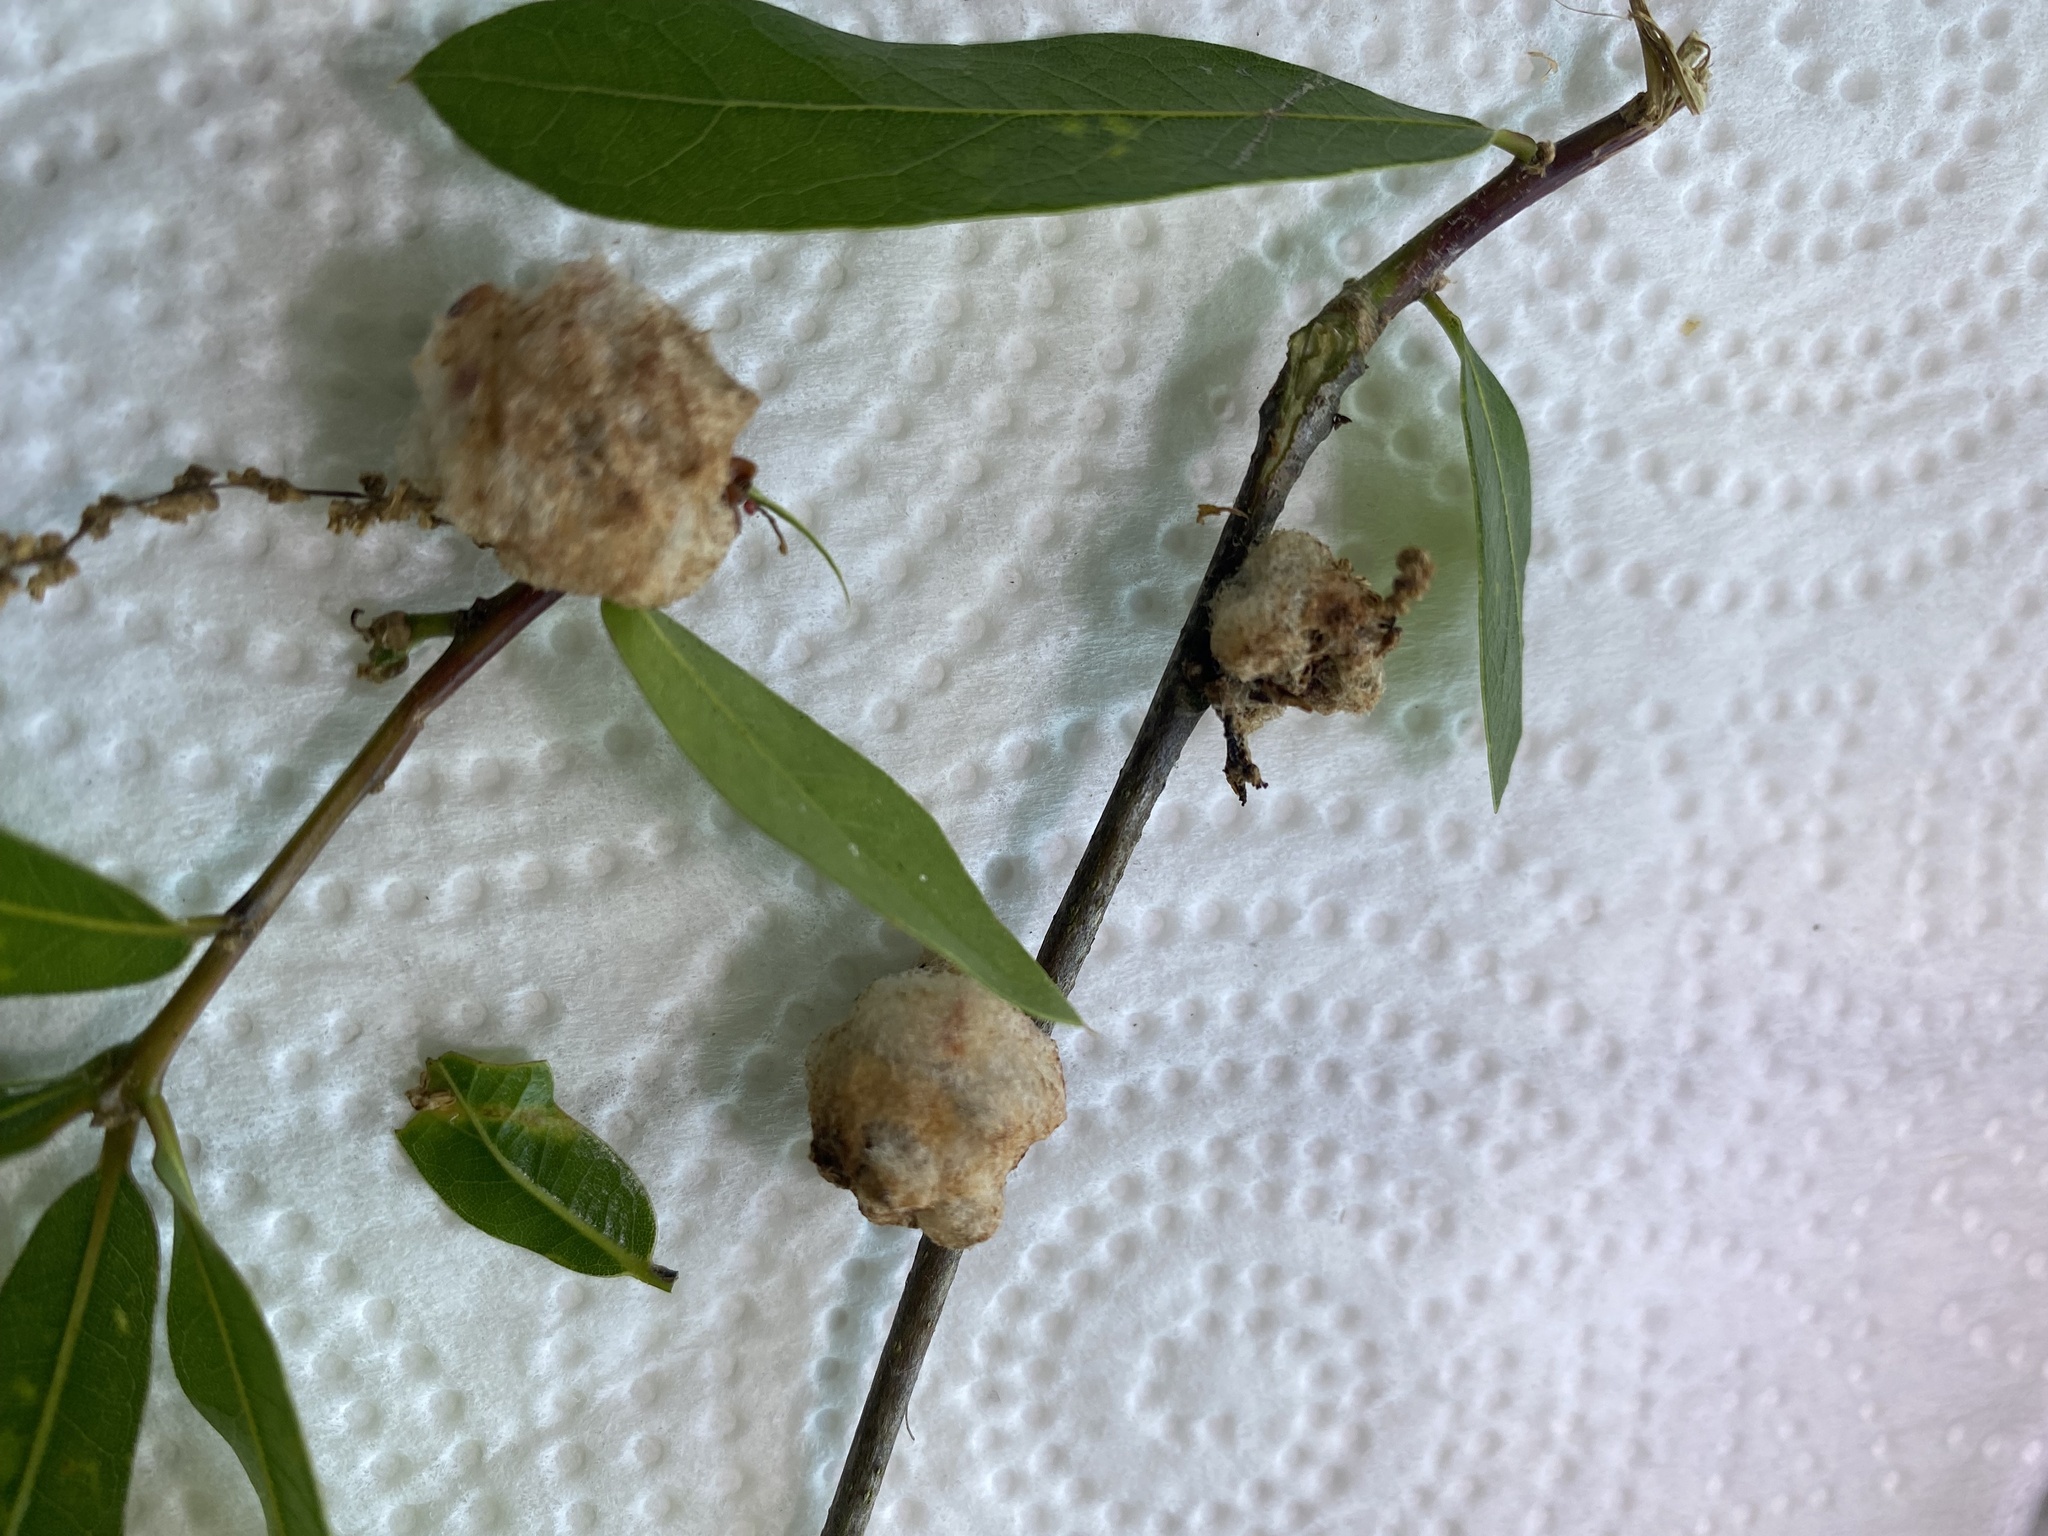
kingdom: Animalia
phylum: Arthropoda
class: Insecta
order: Hymenoptera
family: Cynipidae
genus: Callirhytis
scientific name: Callirhytis
